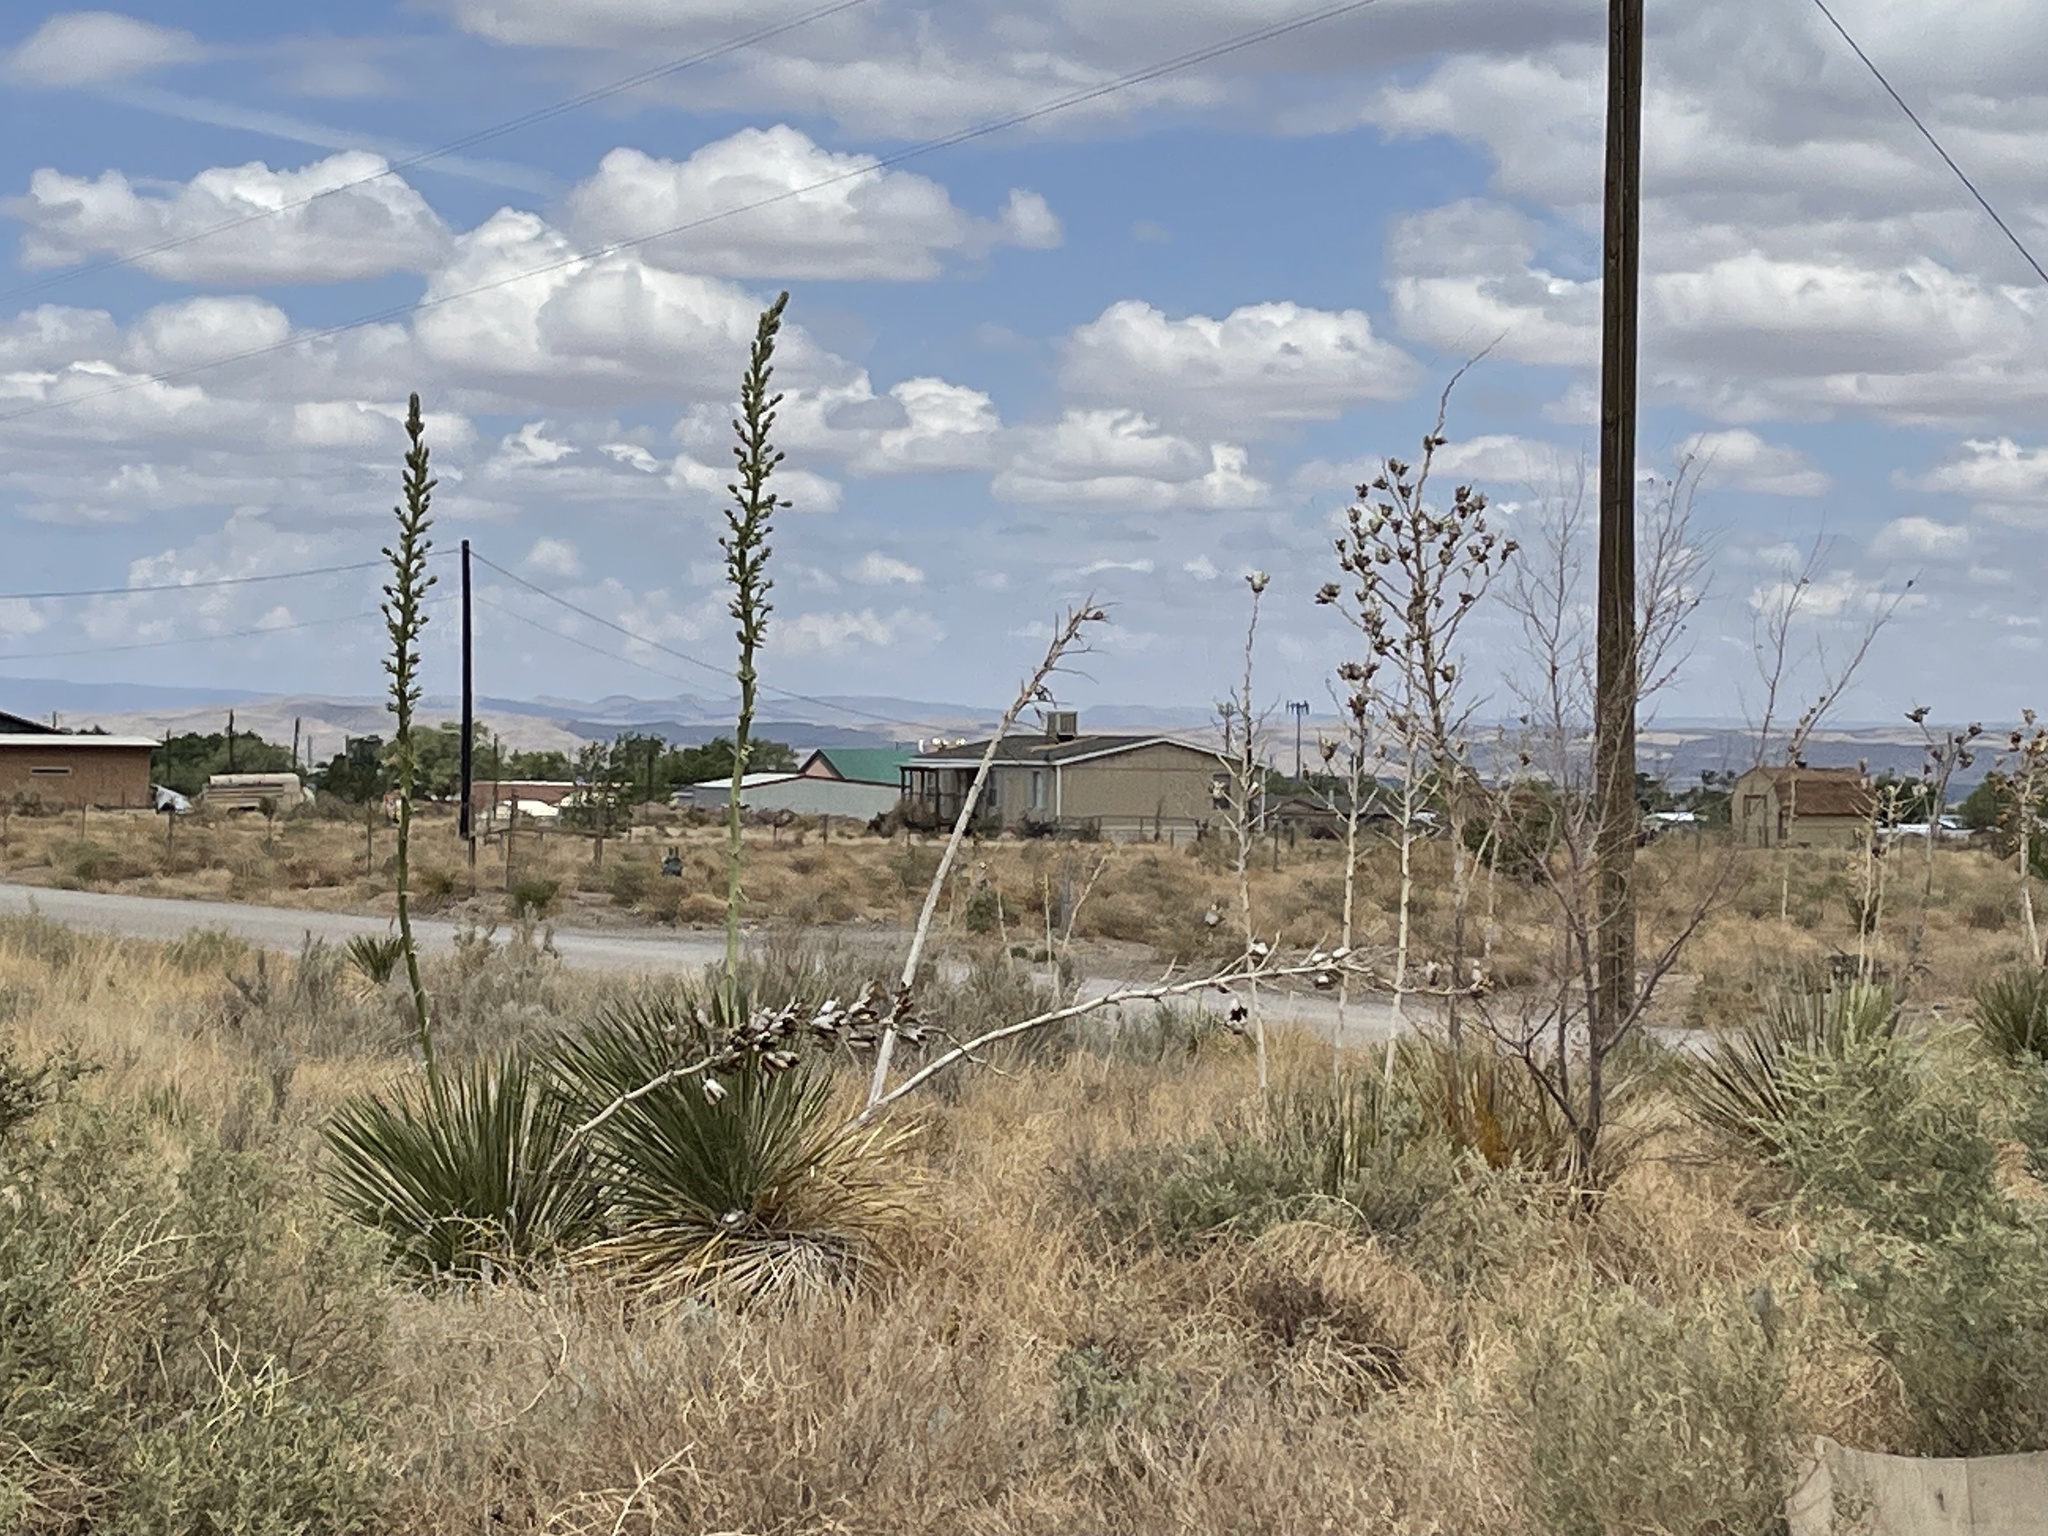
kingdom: Plantae
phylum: Tracheophyta
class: Liliopsida
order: Asparagales
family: Asparagaceae
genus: Yucca
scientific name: Yucca elata
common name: Palmella
